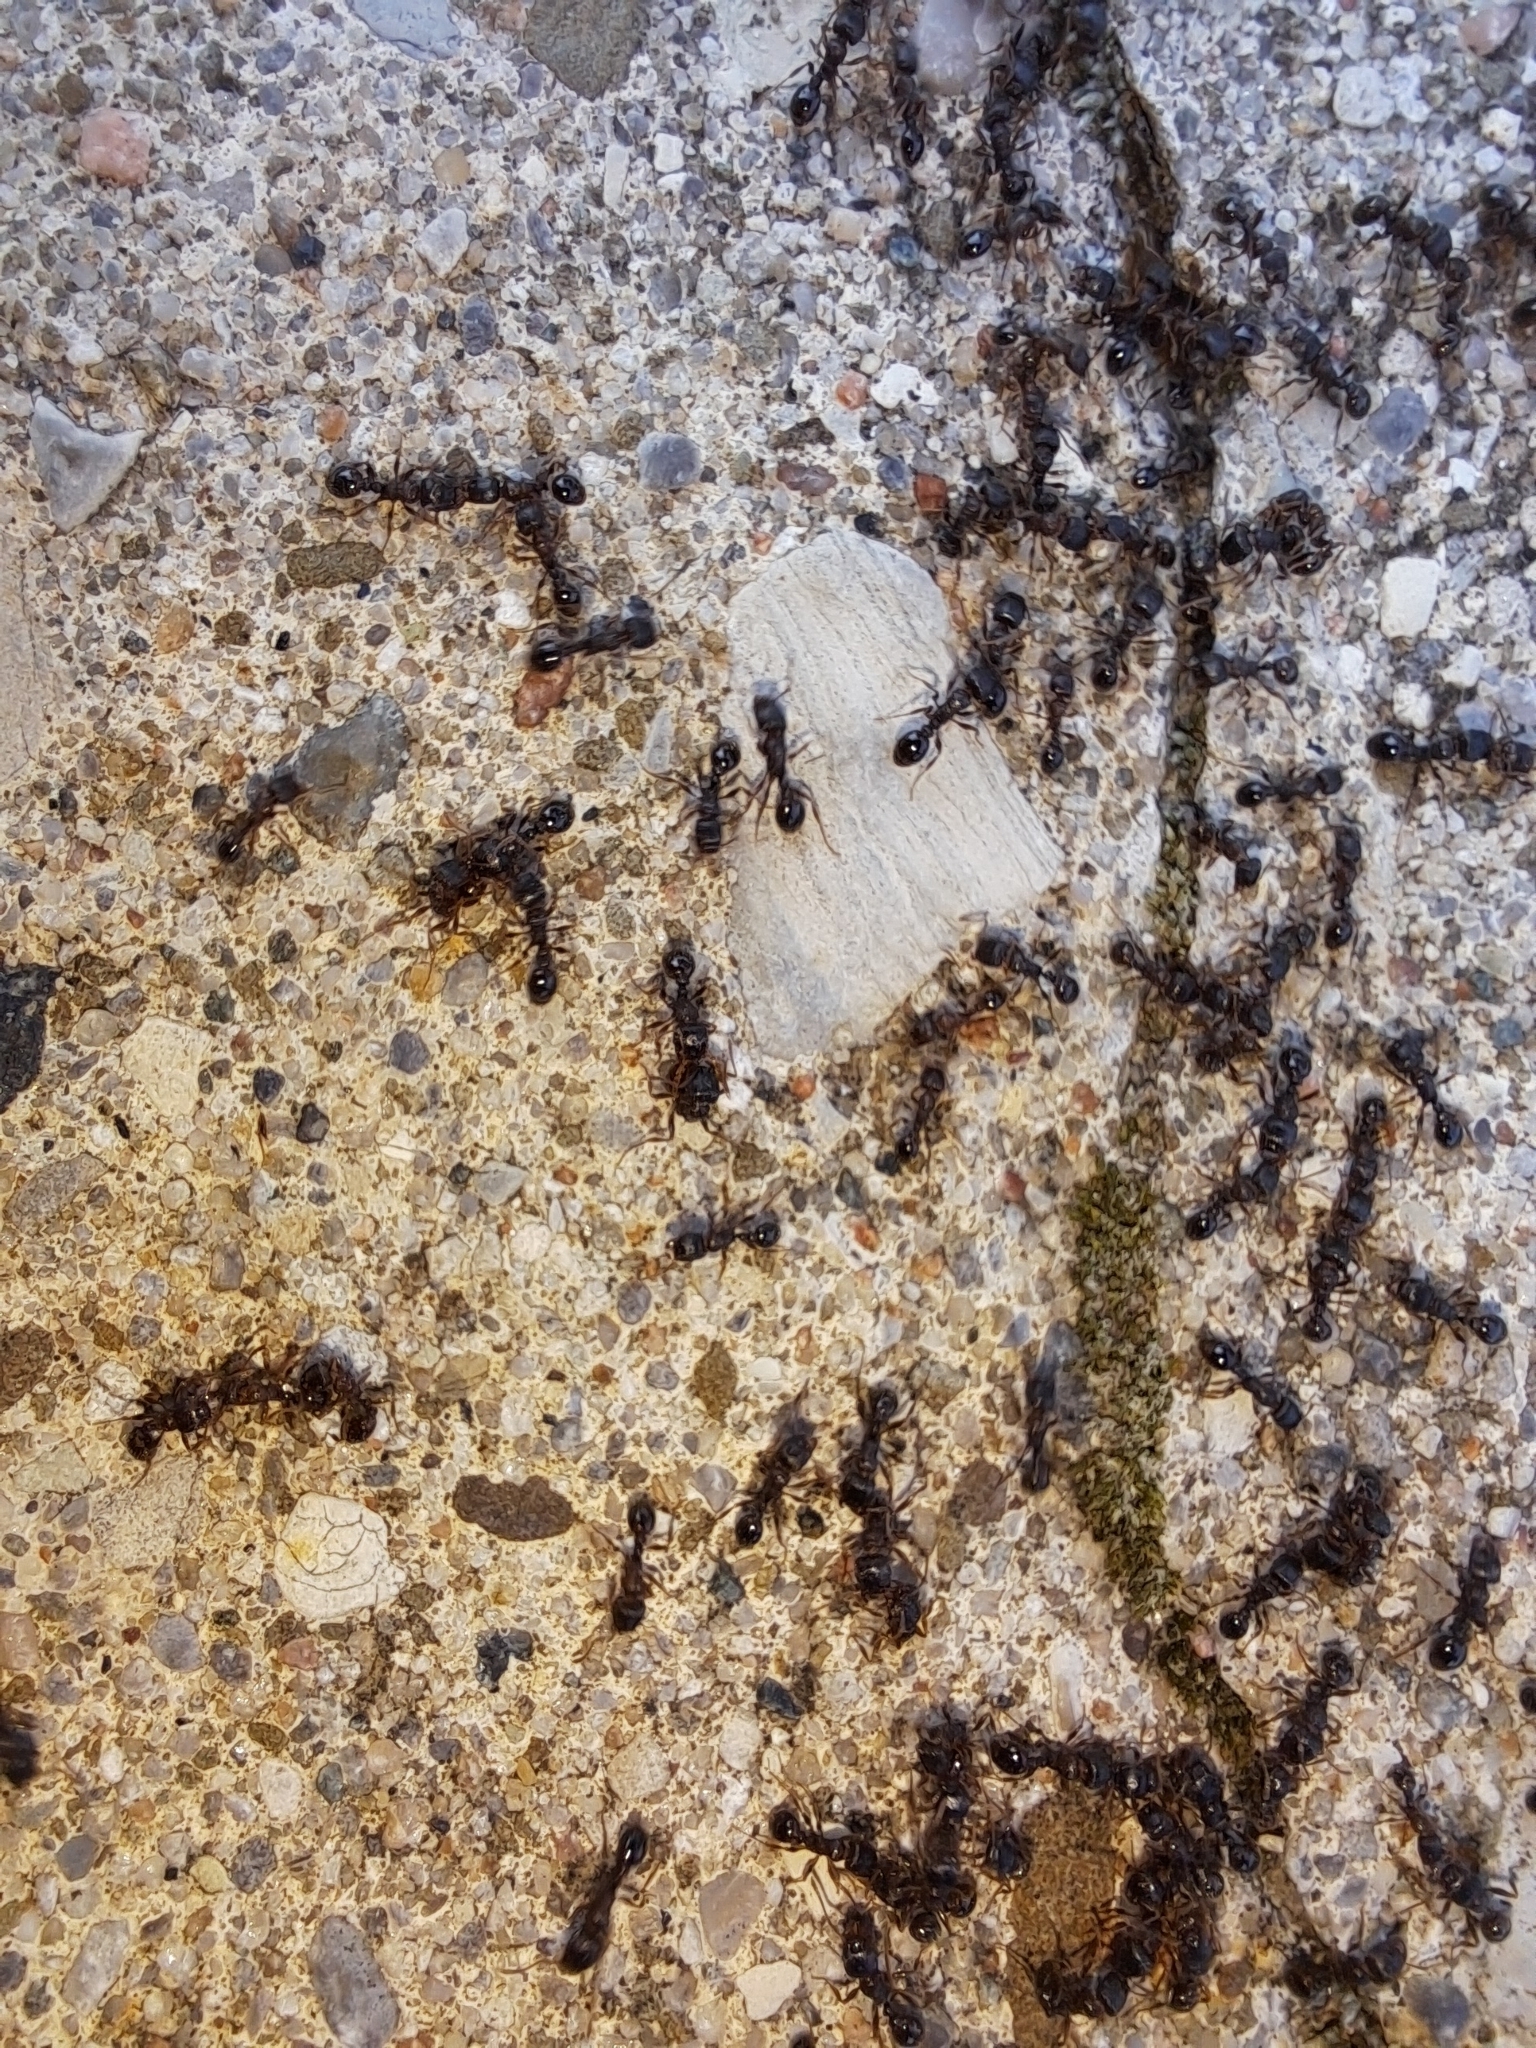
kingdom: Animalia
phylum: Arthropoda
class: Insecta
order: Hymenoptera
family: Formicidae
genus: Tetramorium
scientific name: Tetramorium immigrans
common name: Pavement ant
